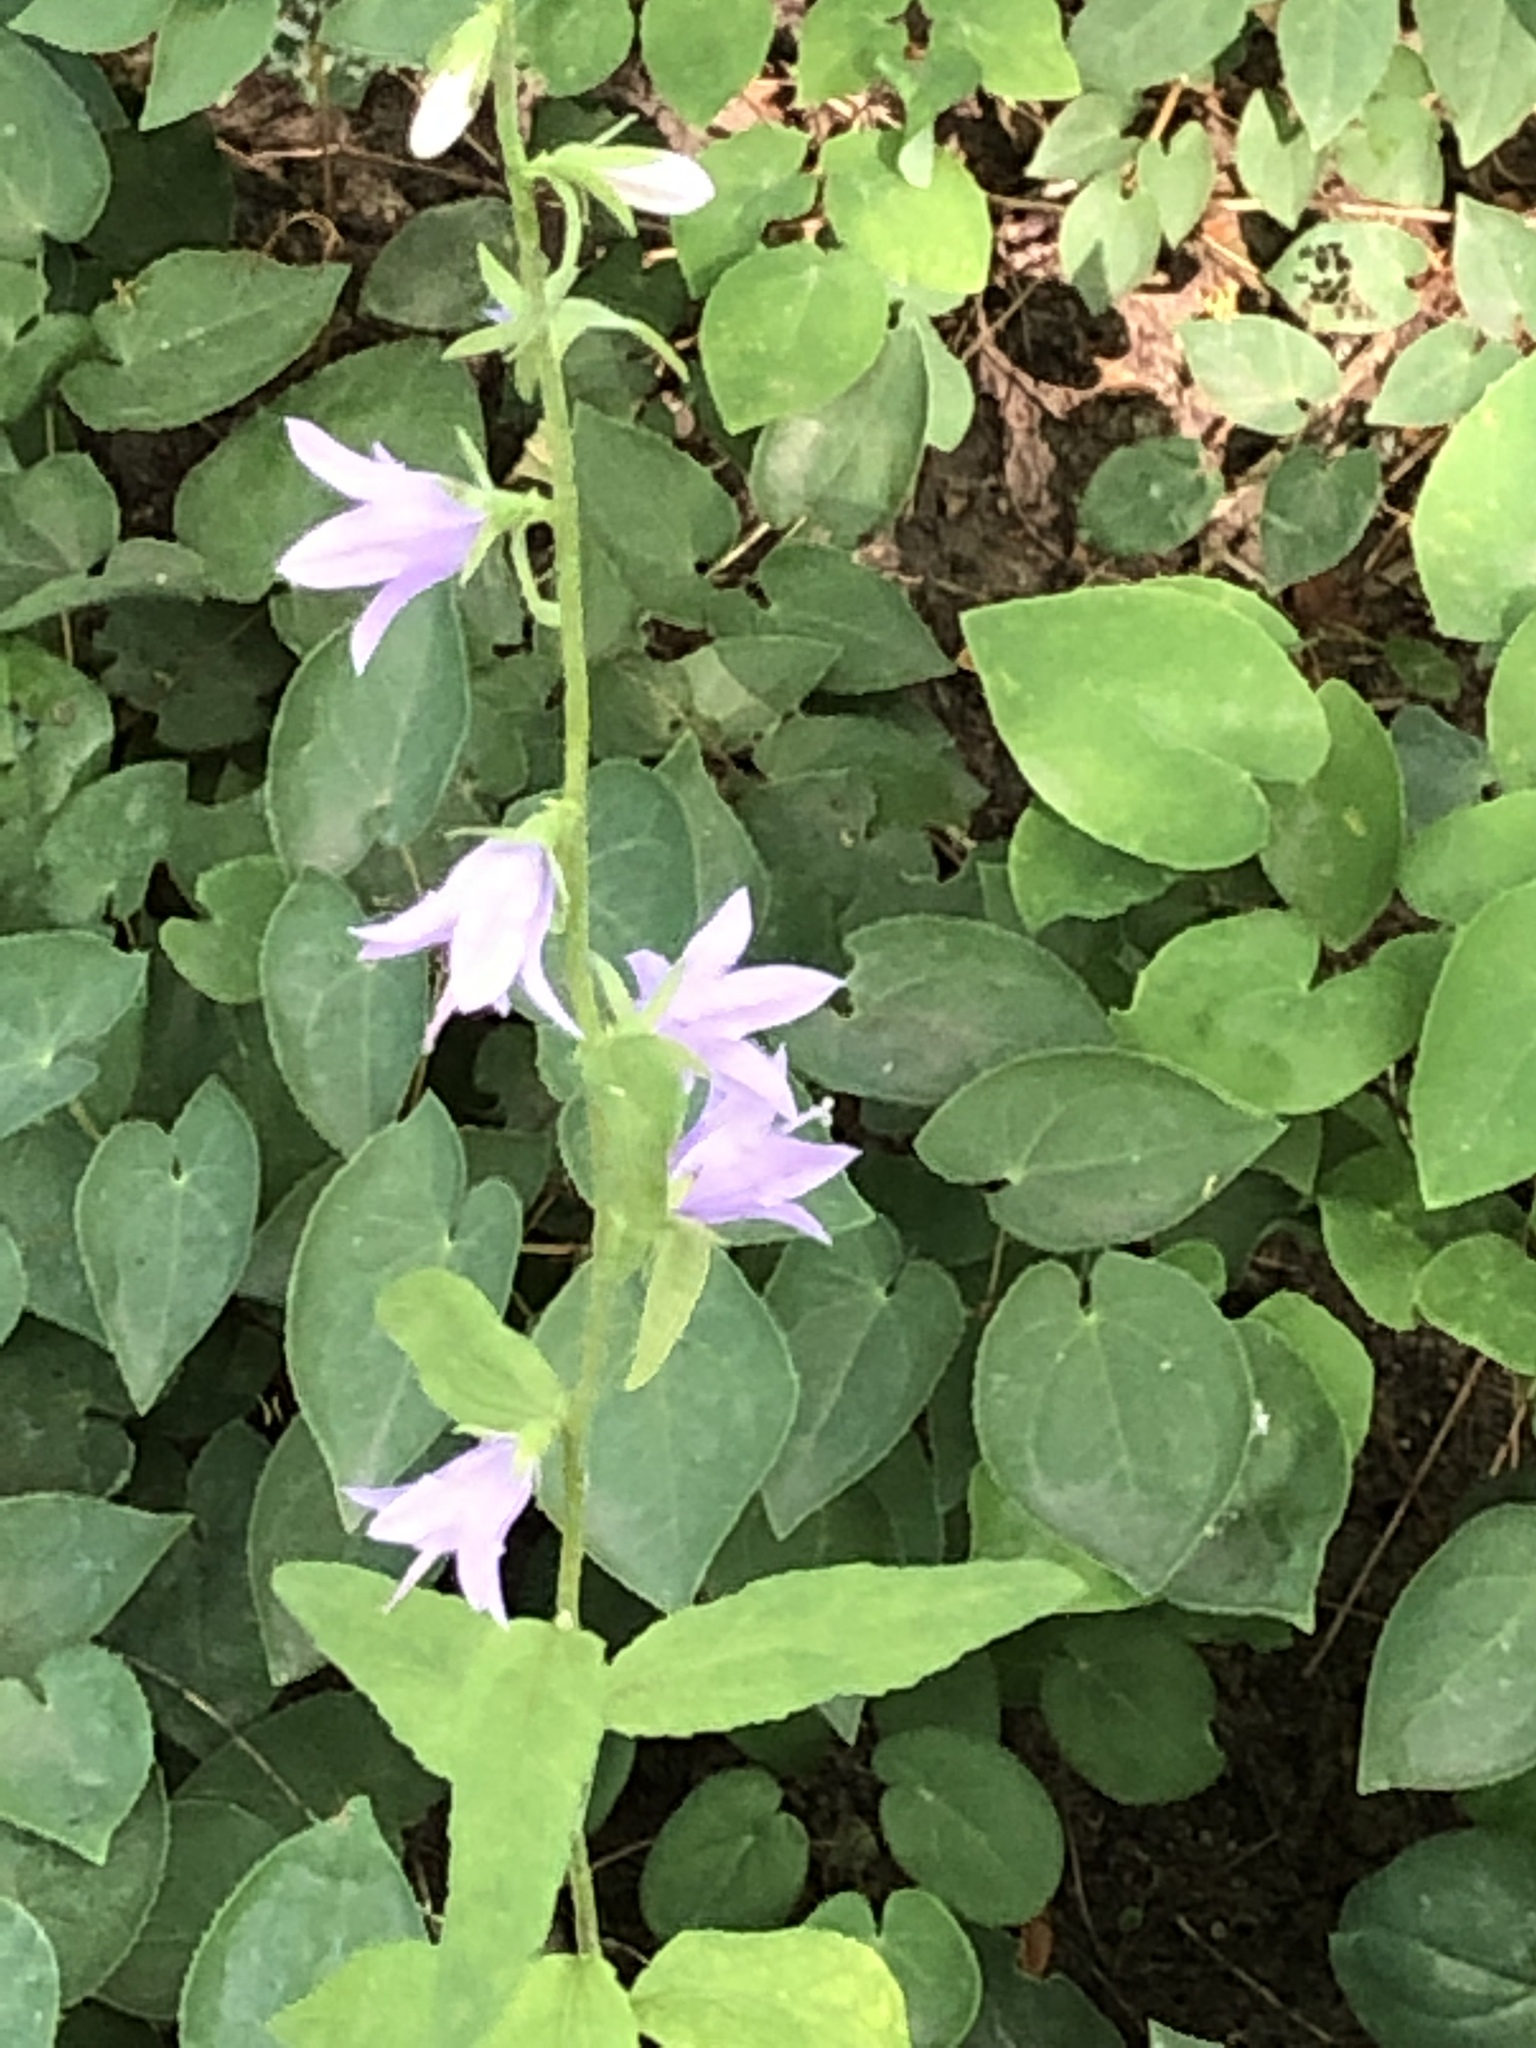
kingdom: Plantae
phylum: Tracheophyta
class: Magnoliopsida
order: Asterales
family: Campanulaceae
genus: Campanula
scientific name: Campanula rapunculoides
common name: Creeping bellflower
